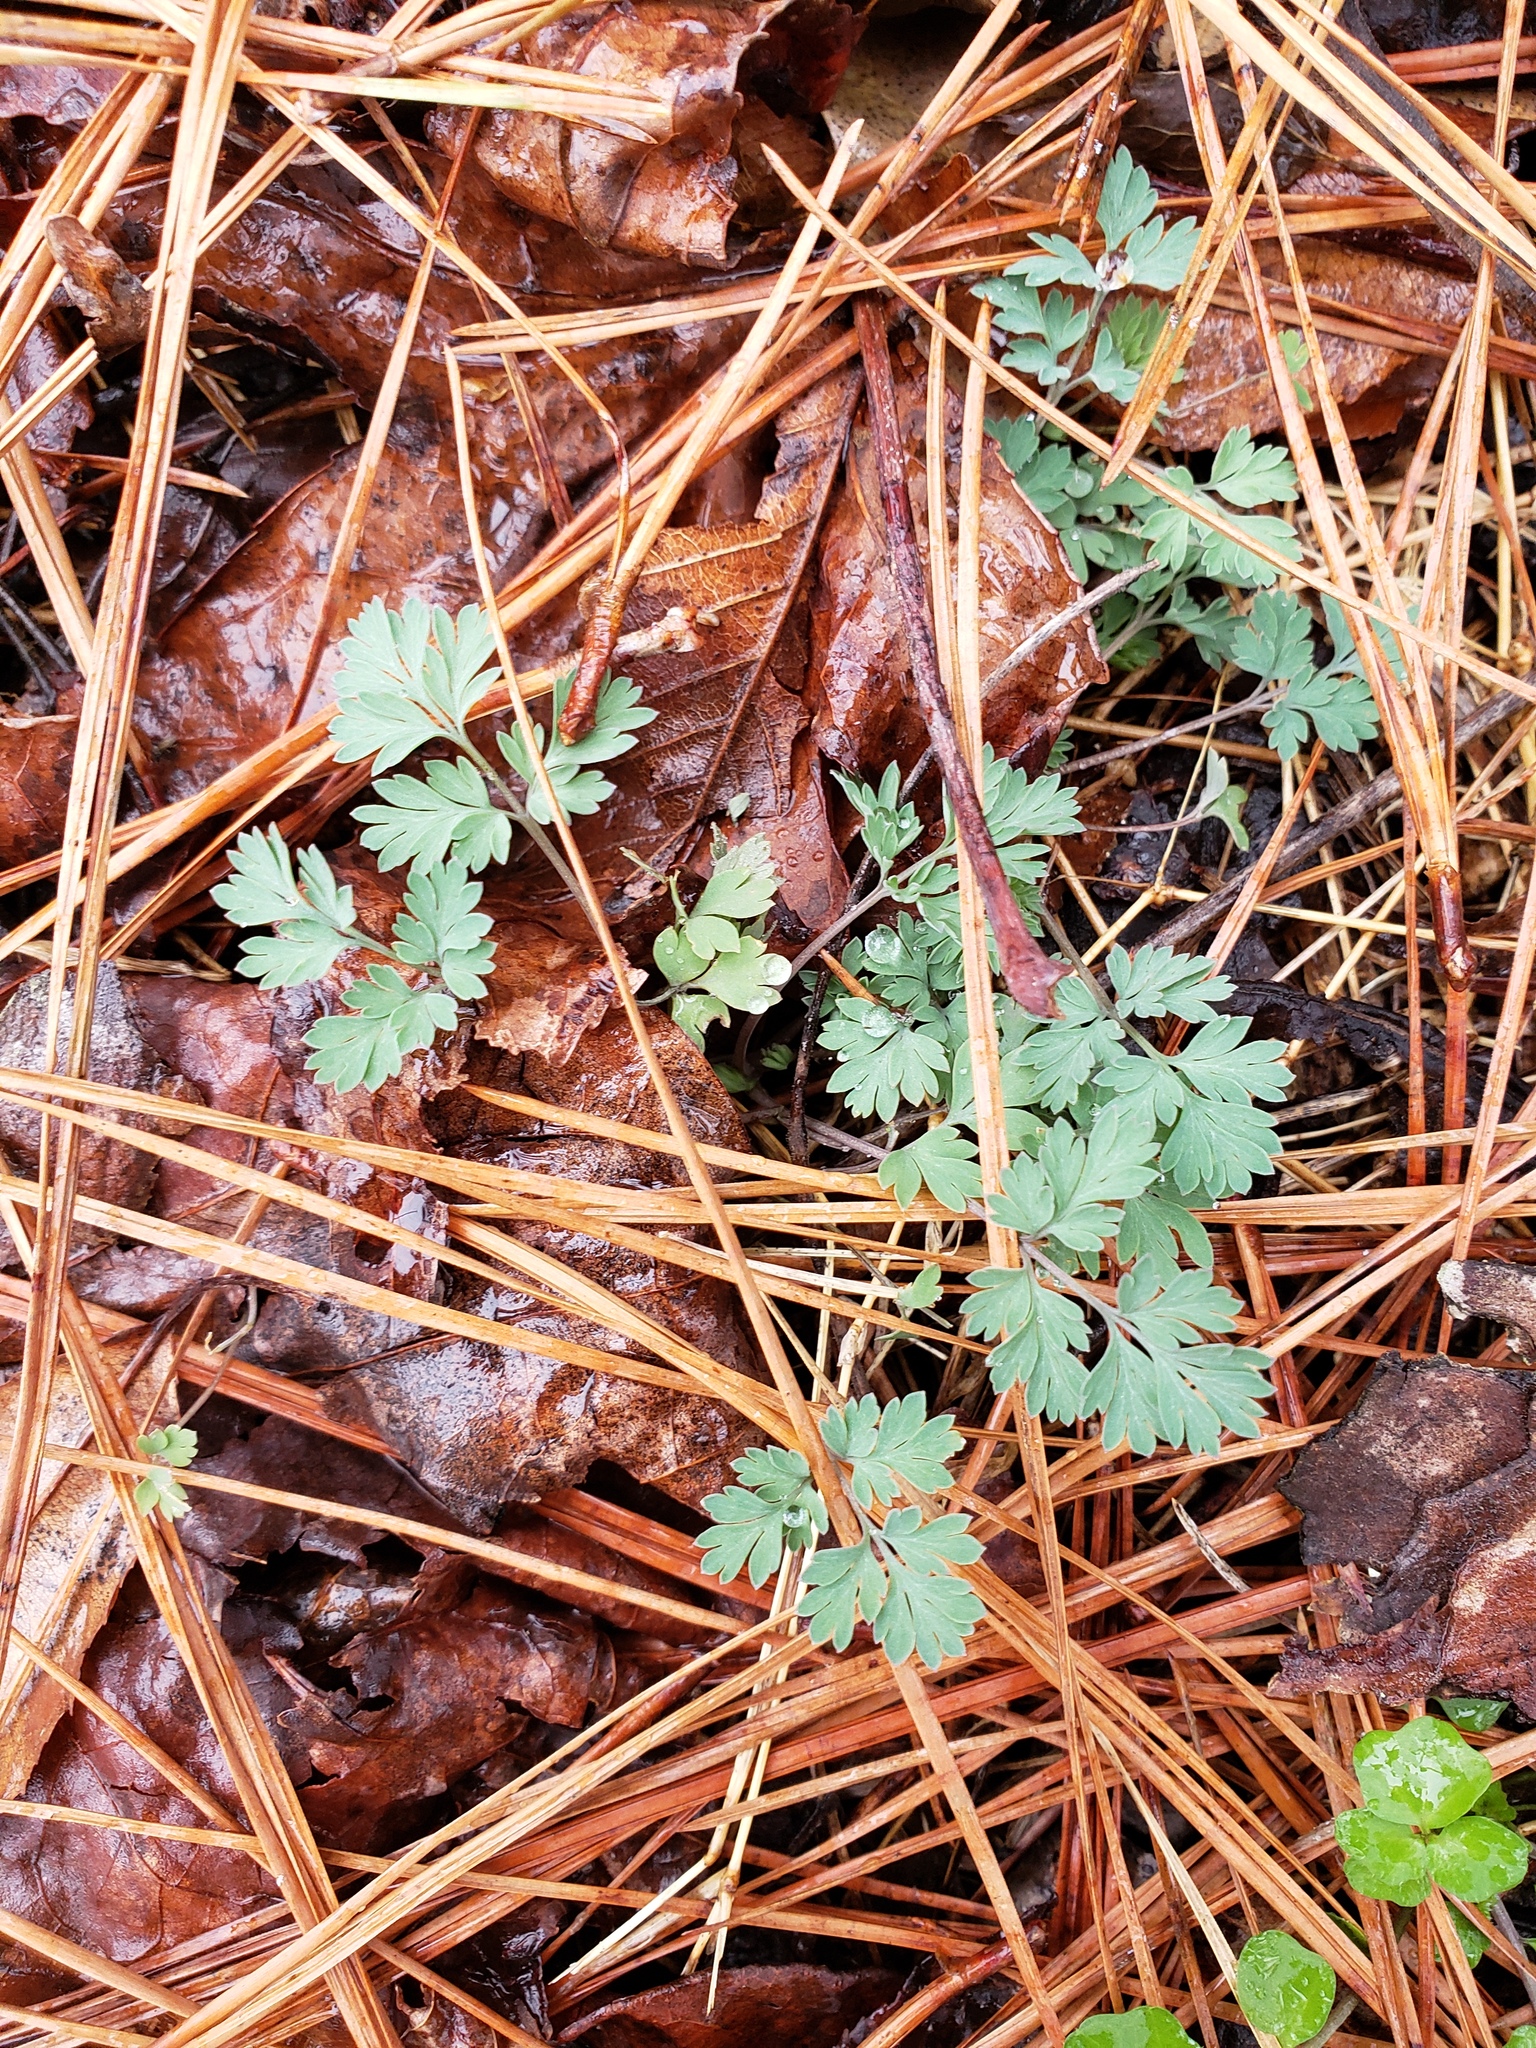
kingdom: Plantae
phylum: Tracheophyta
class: Magnoliopsida
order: Ranunculales
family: Papaveraceae
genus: Corydalis
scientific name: Corydalis flavula
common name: Yellow corydalis
